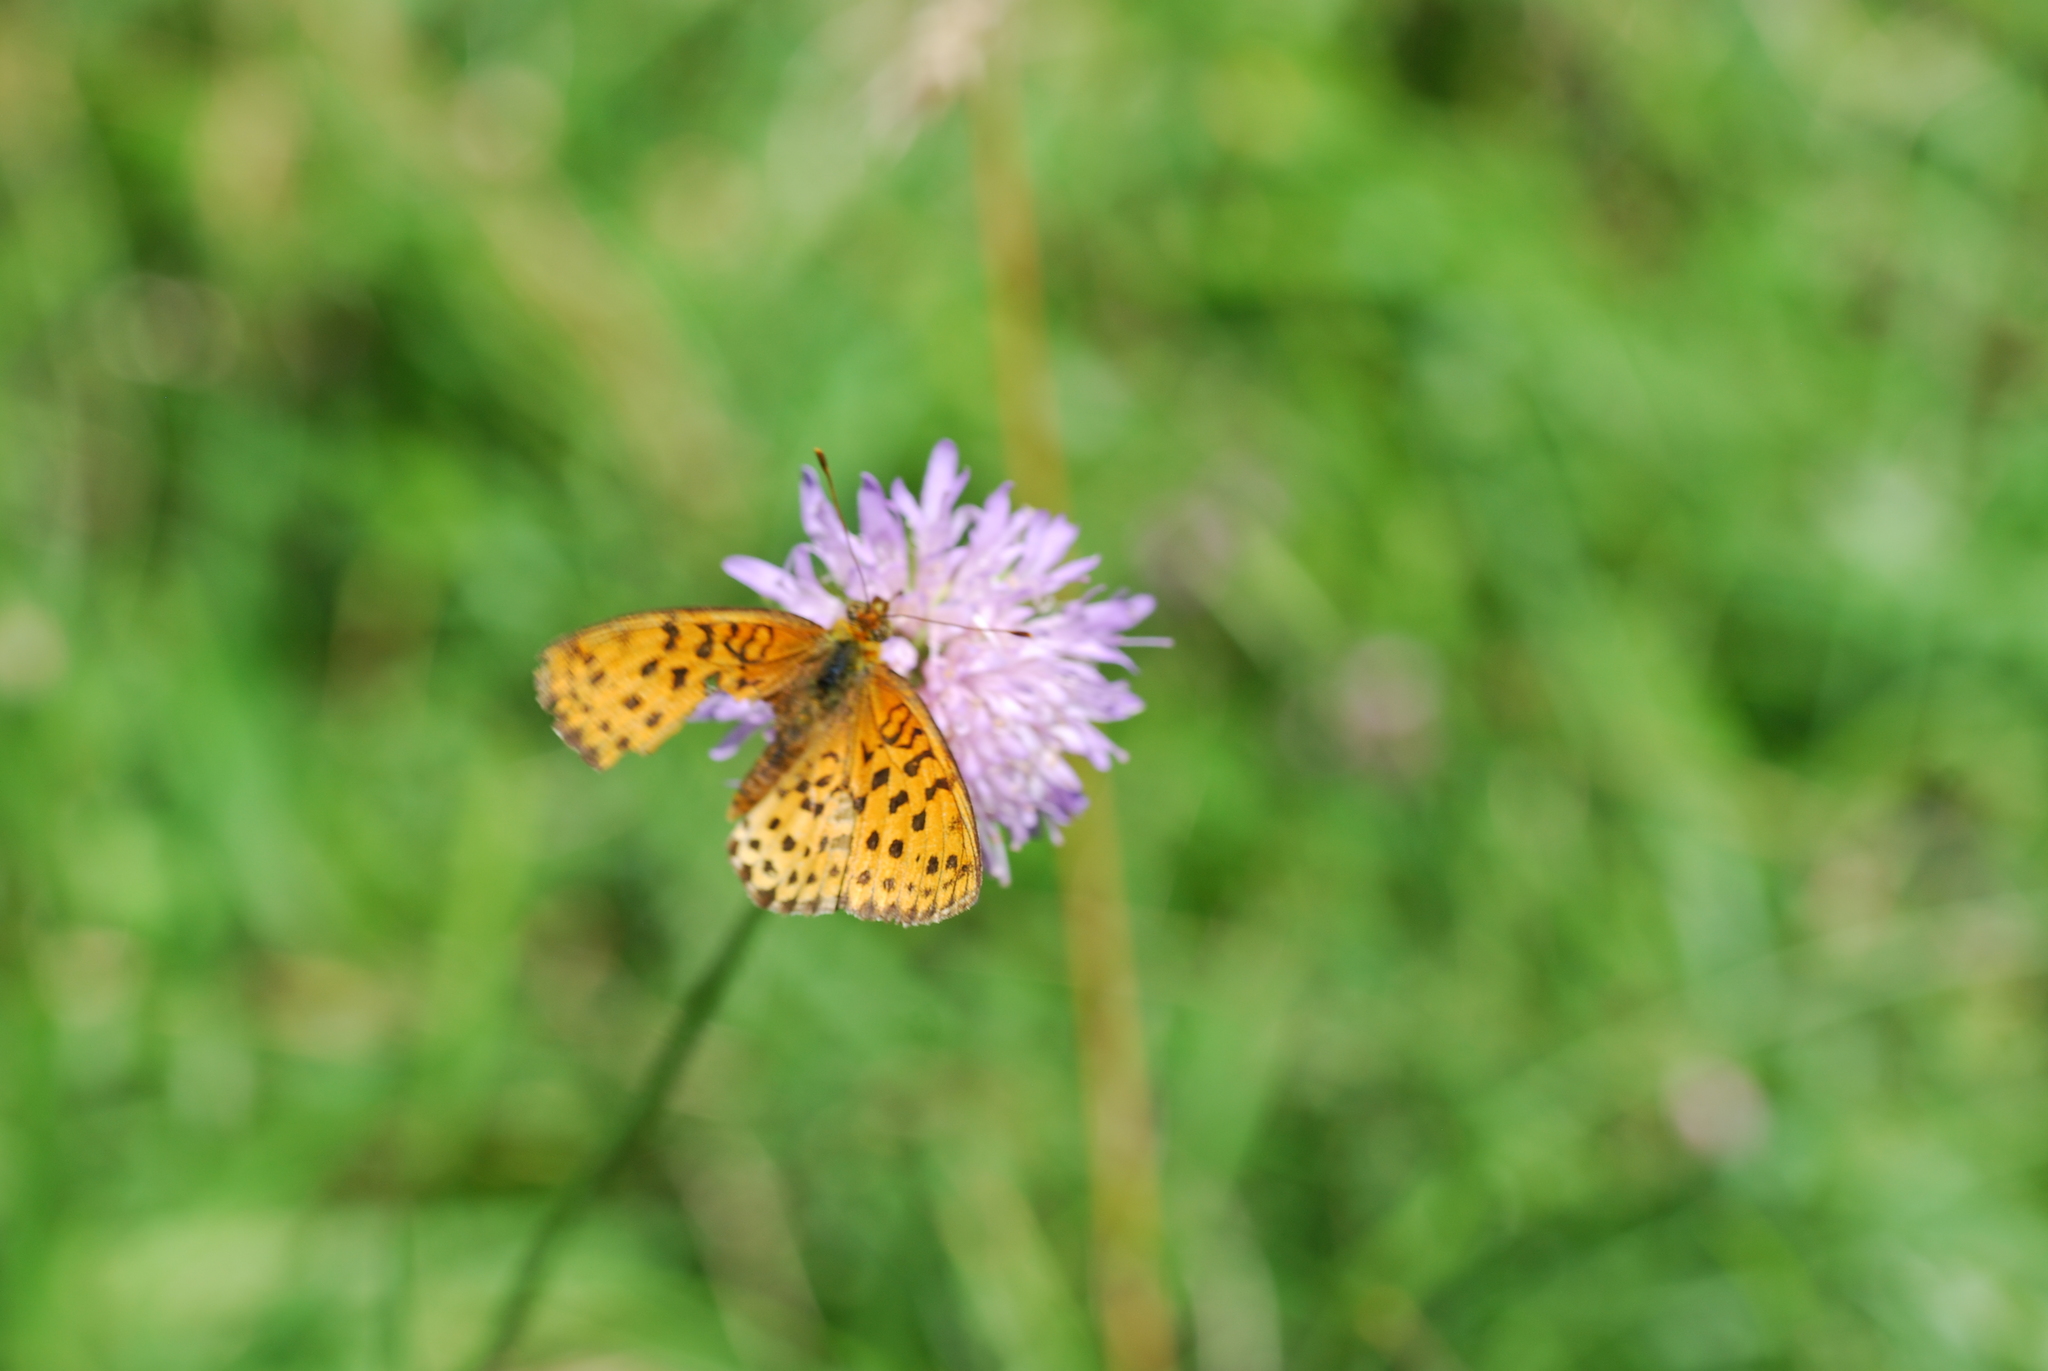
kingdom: Animalia
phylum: Arthropoda
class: Insecta
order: Lepidoptera
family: Nymphalidae
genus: Brenthis
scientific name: Brenthis daphne
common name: Marbled fritillary
